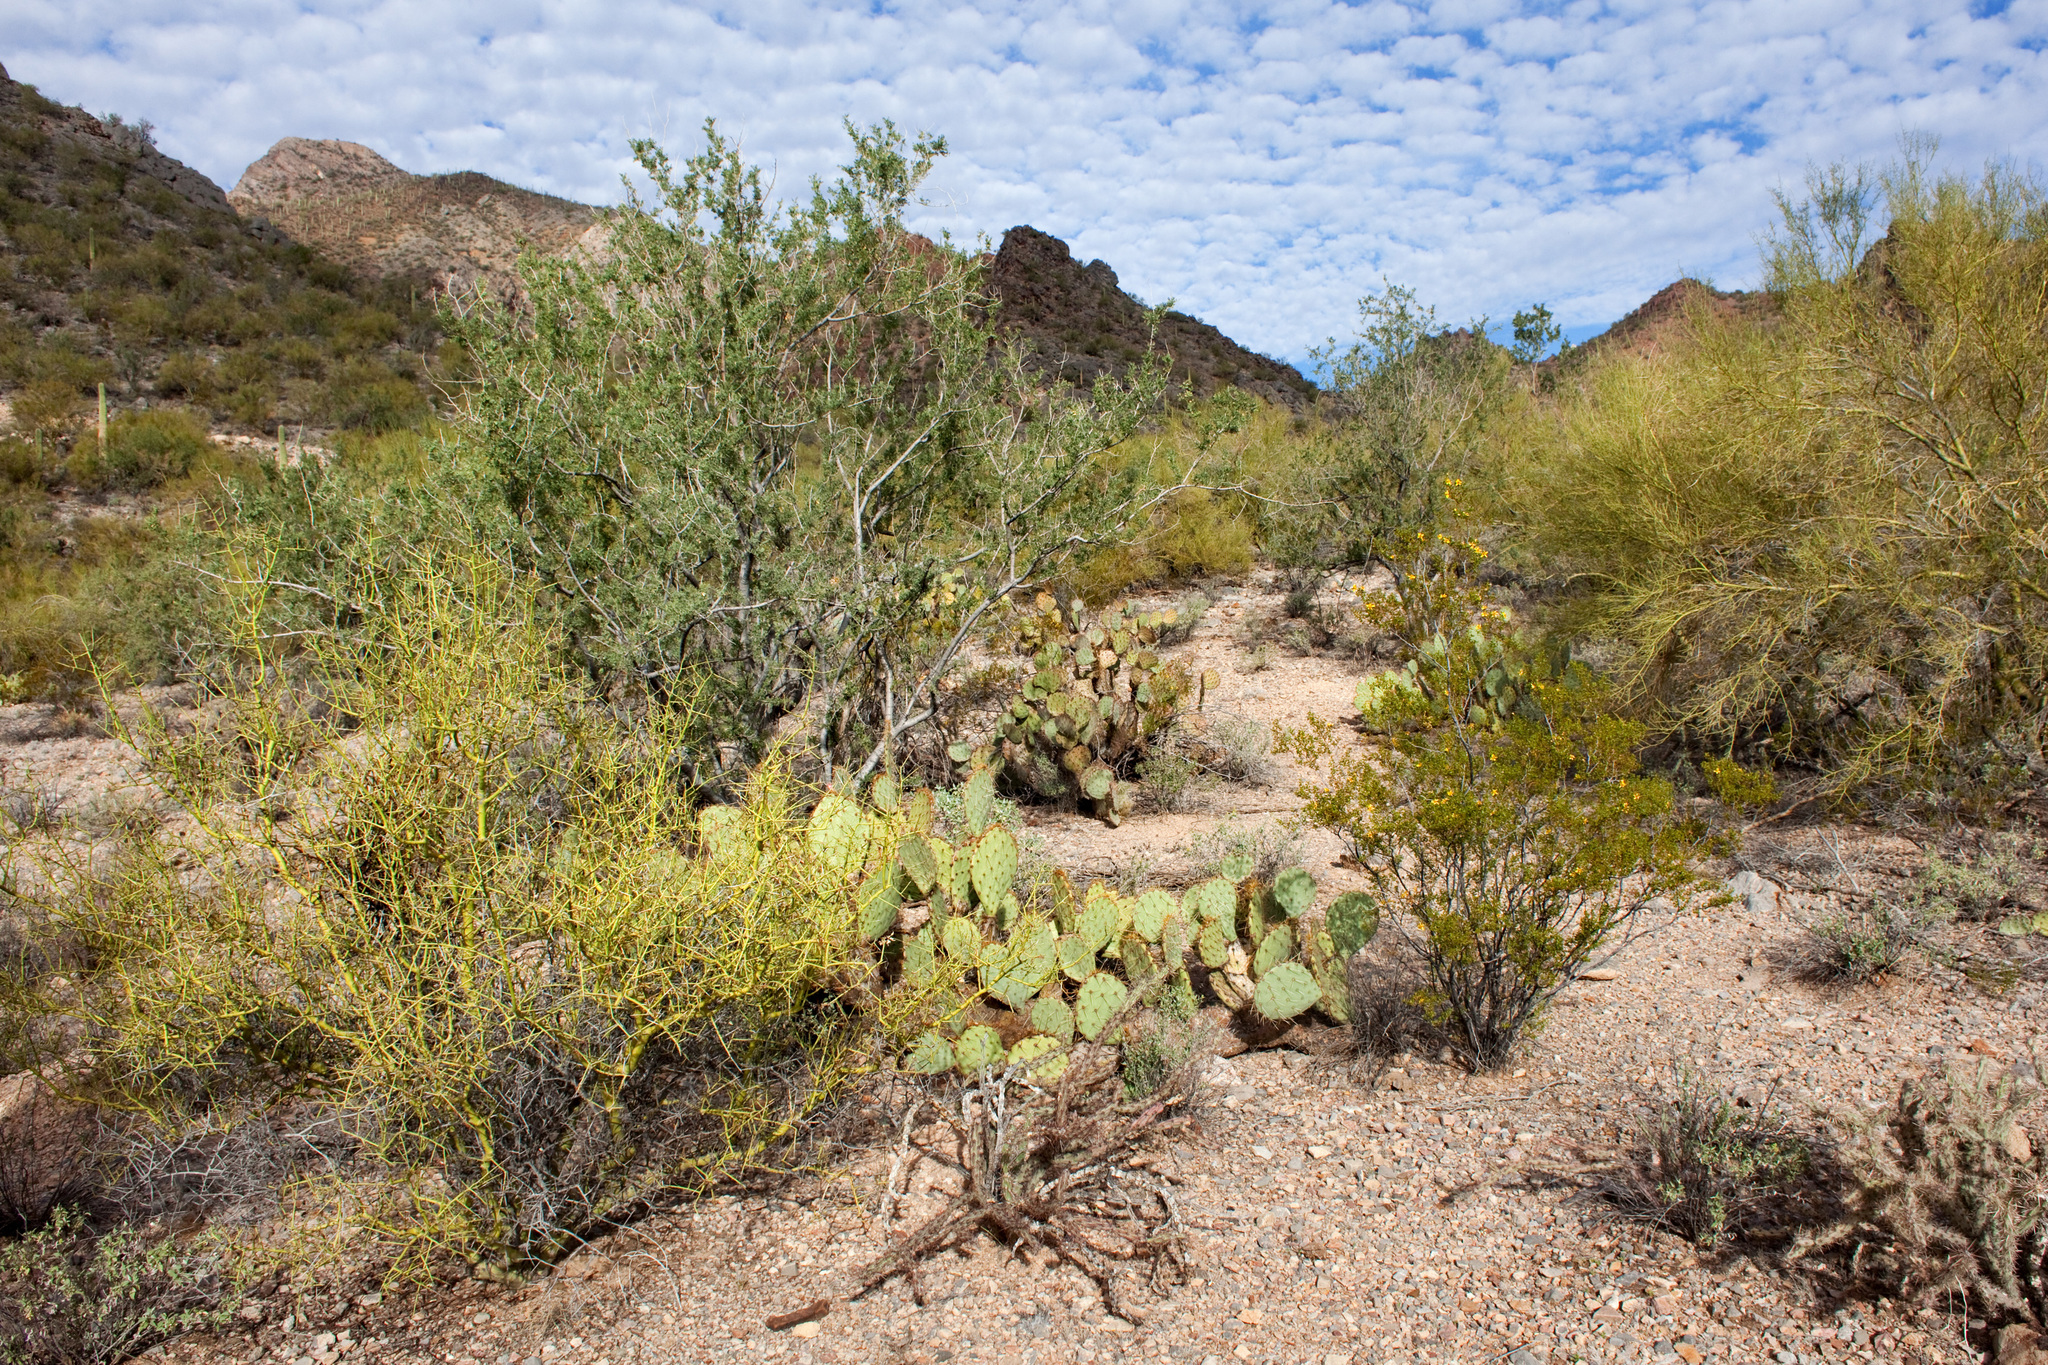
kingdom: Plantae
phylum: Tracheophyta
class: Magnoliopsida
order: Asterales
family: Asteraceae
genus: Ambrosia
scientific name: Ambrosia trifida
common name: Giant ragweed
